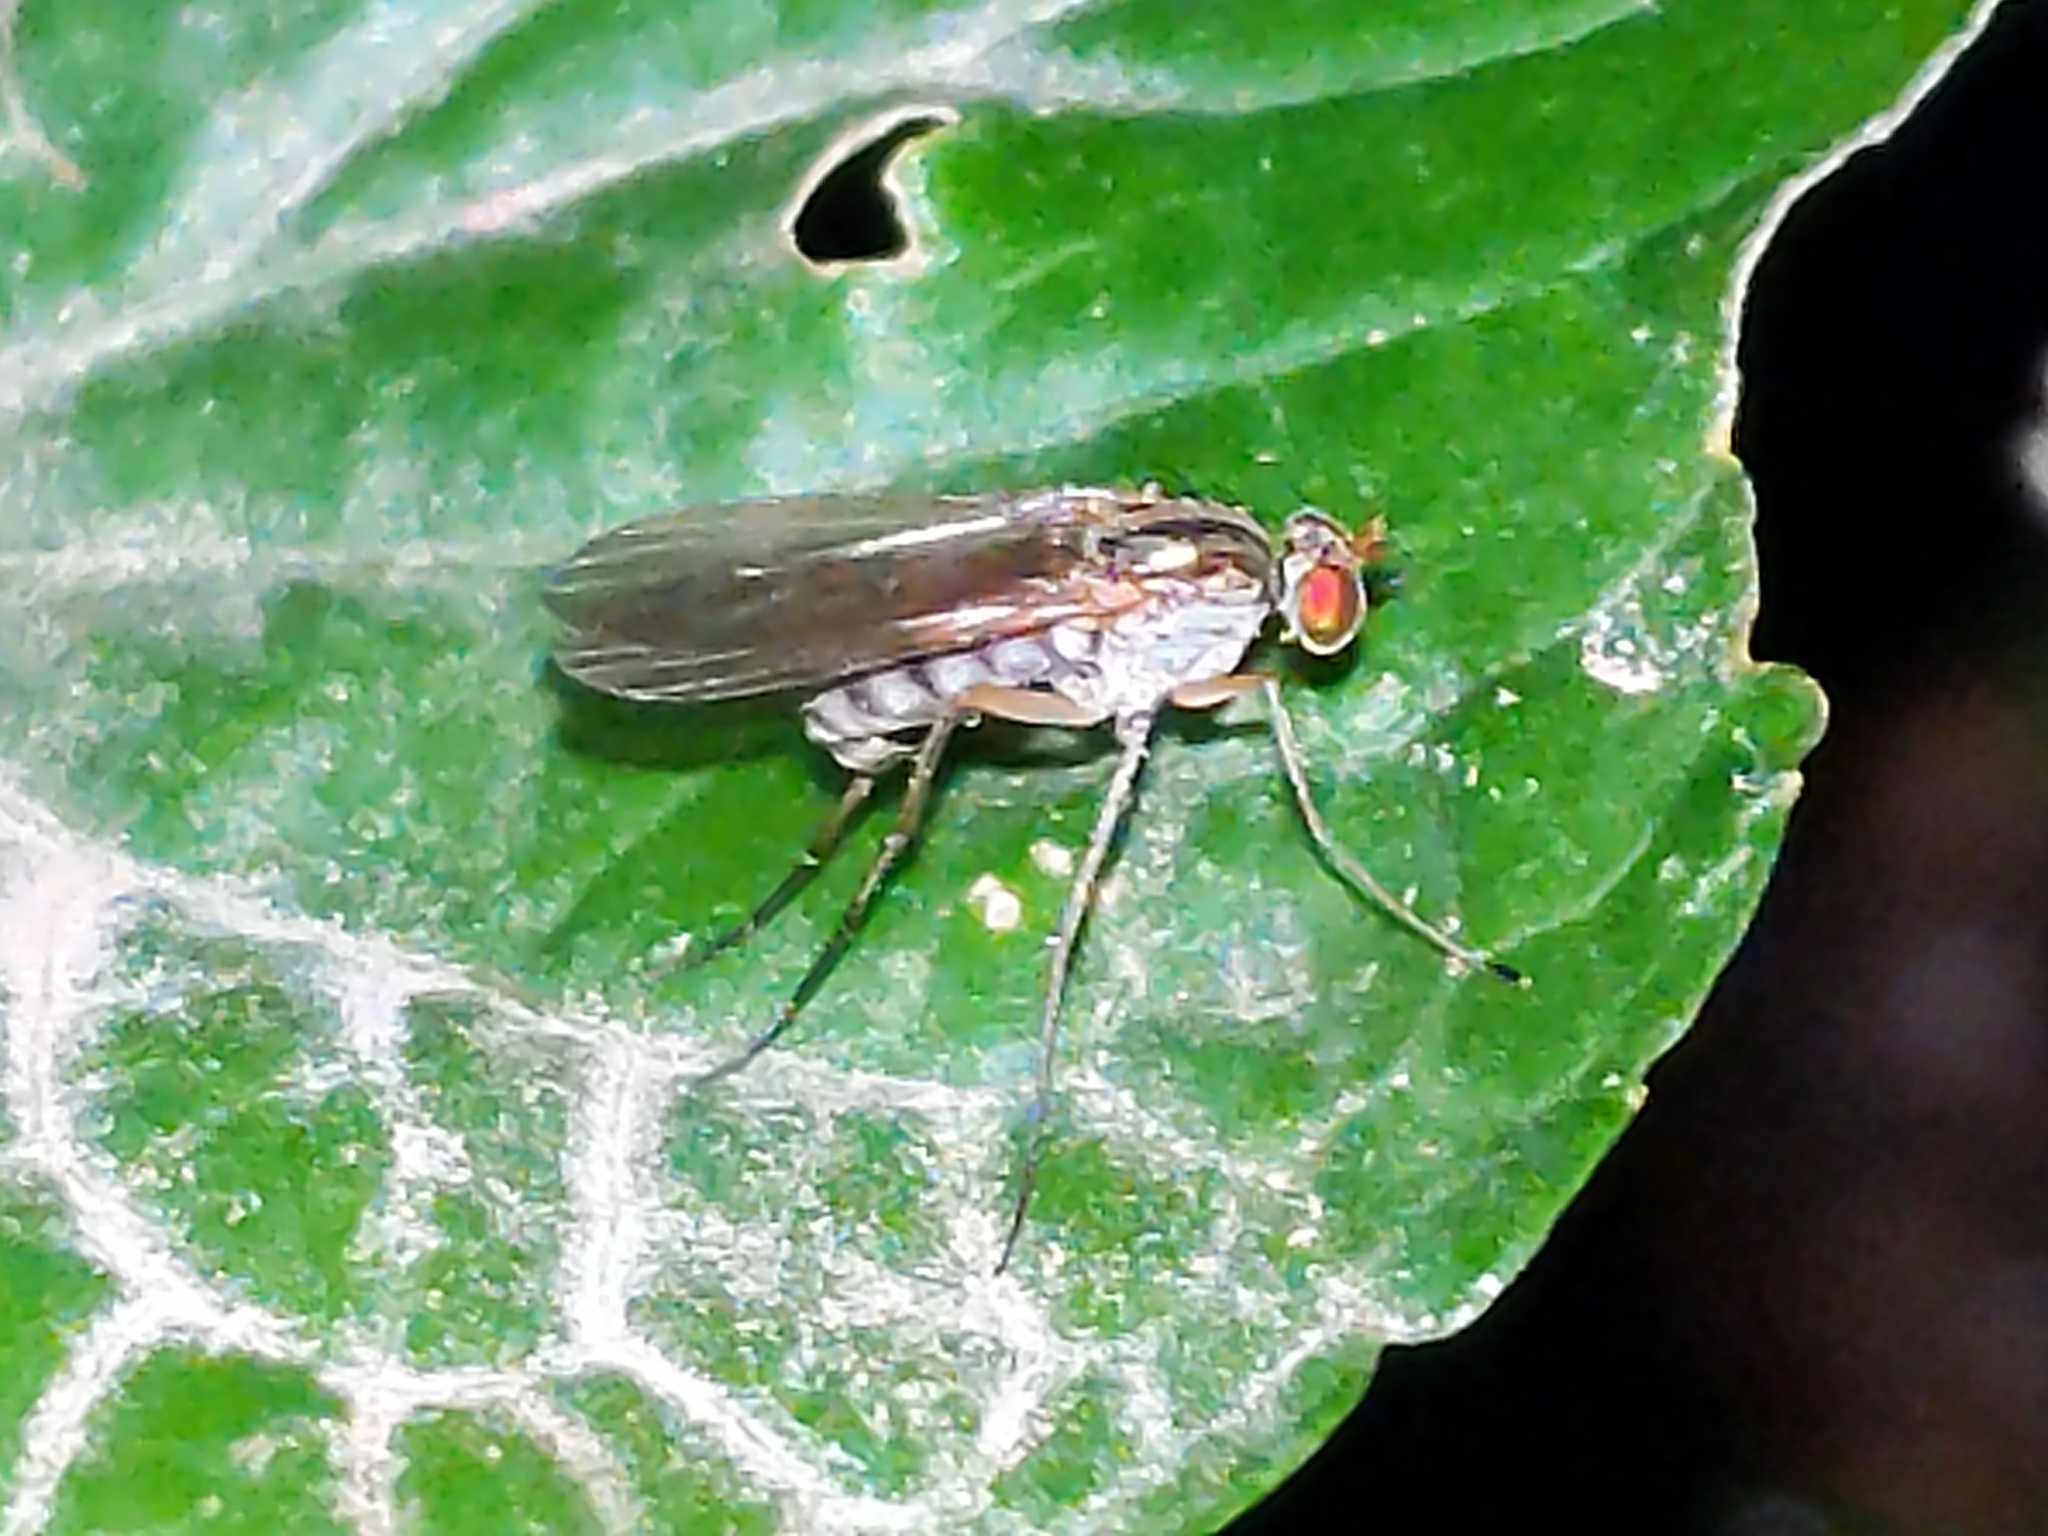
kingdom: Animalia
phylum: Arthropoda
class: Insecta
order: Diptera
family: Dolichopodidae
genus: Dolichopus
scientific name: Dolichopus
